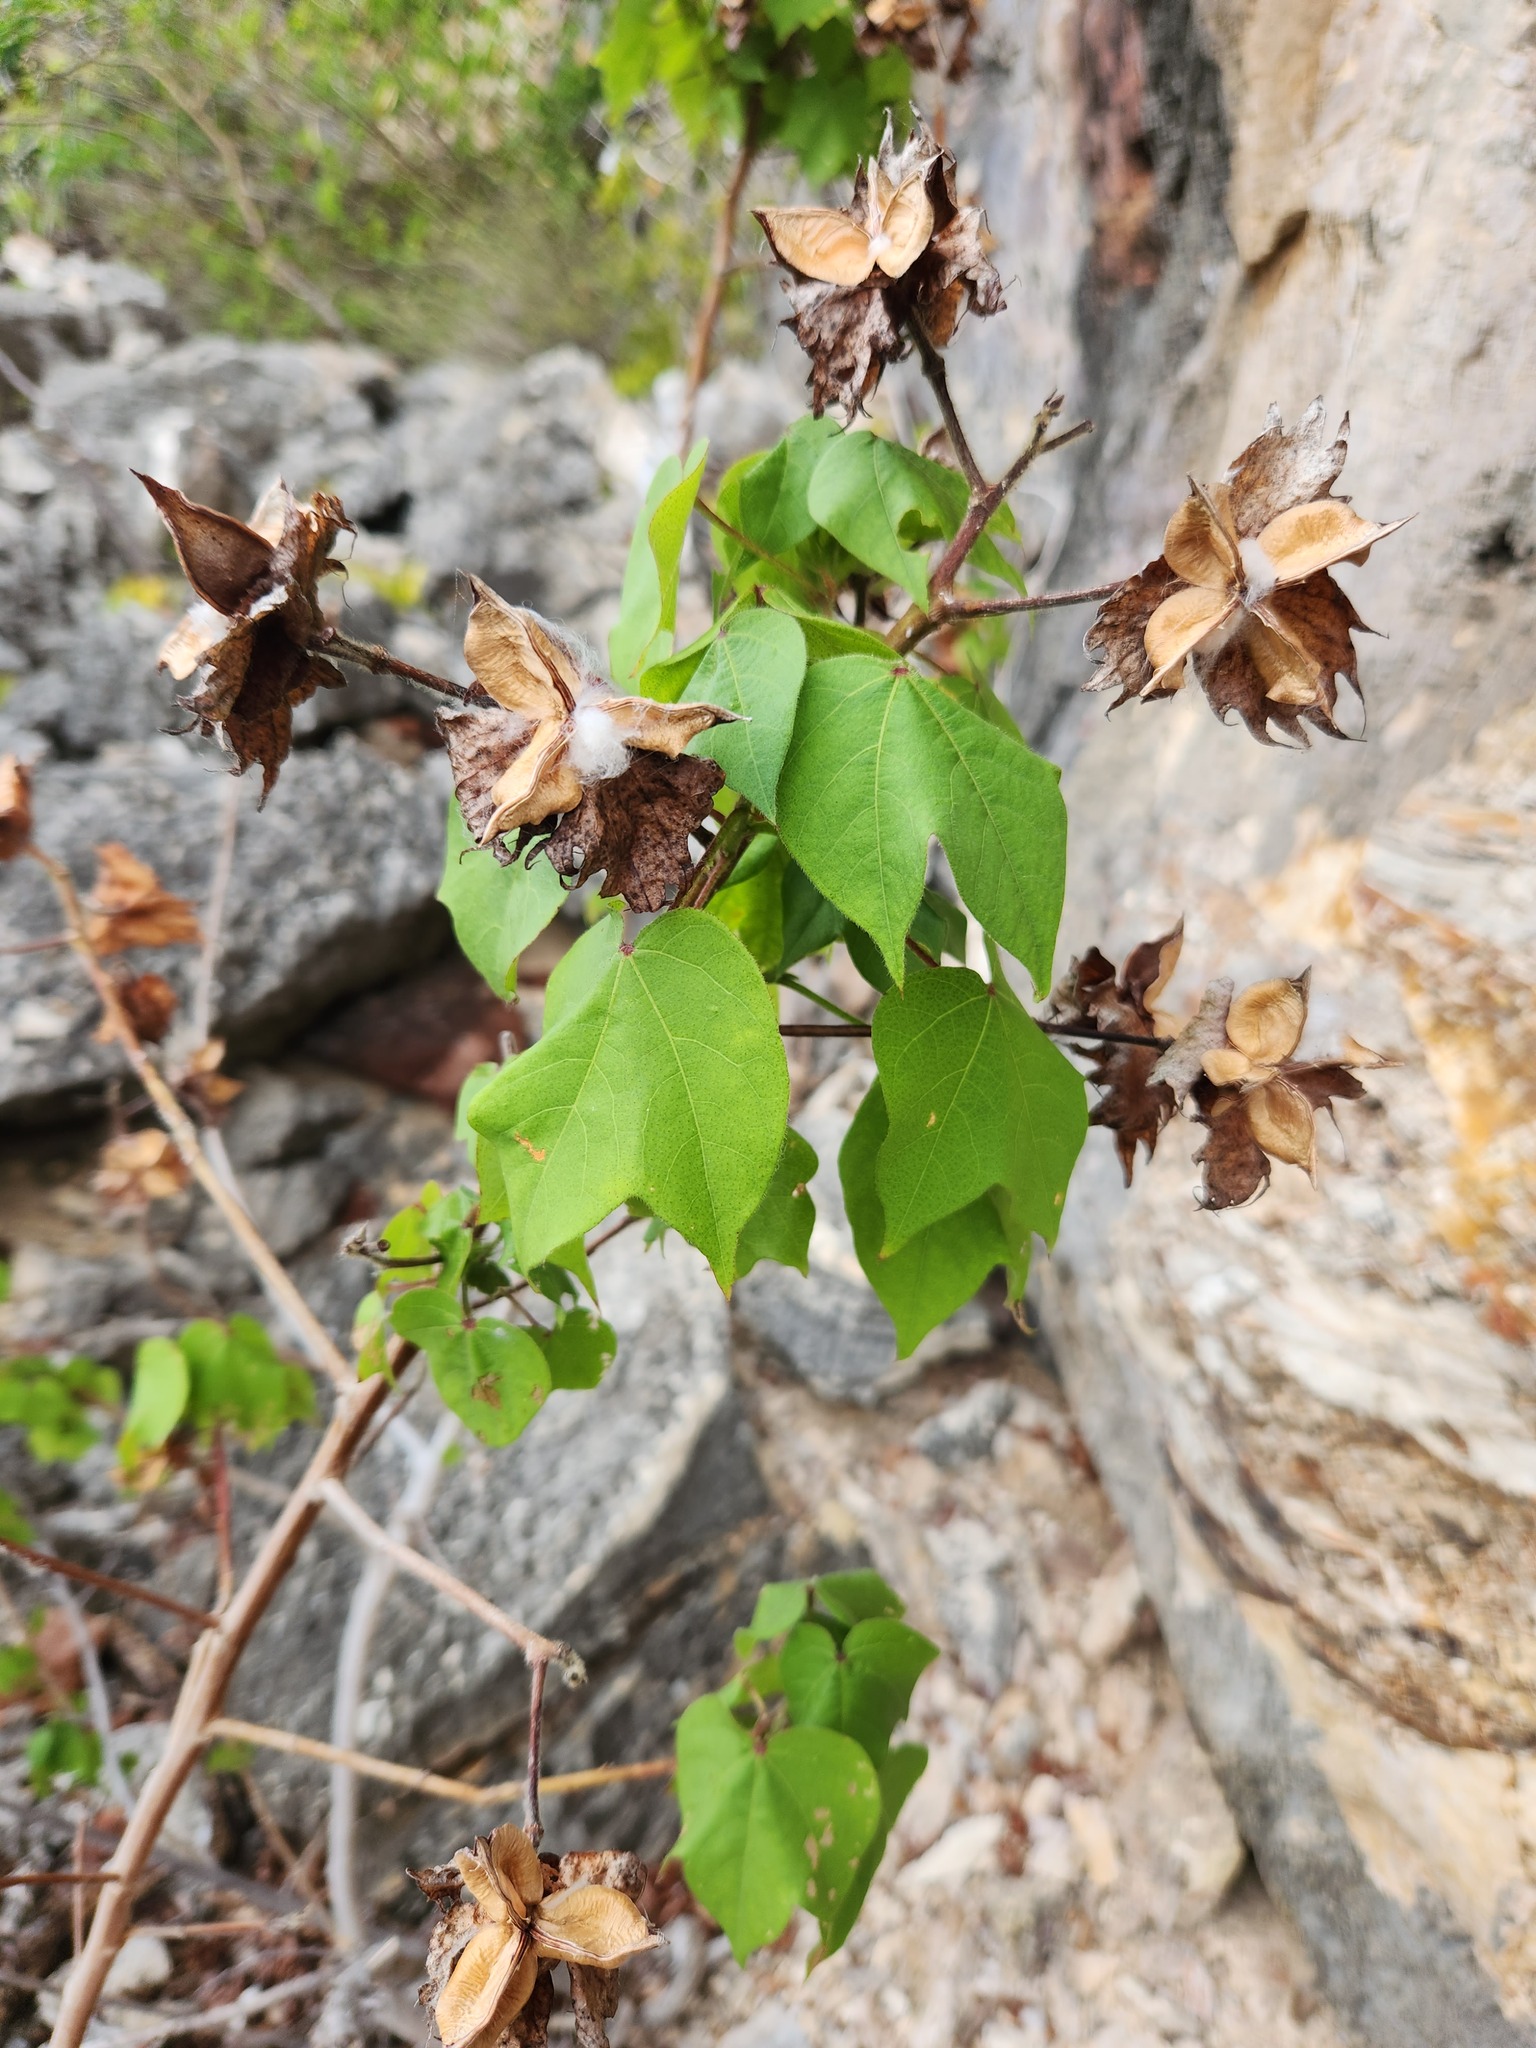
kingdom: Plantae
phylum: Tracheophyta
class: Magnoliopsida
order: Malvales
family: Malvaceae
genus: Gossypium
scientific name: Gossypium hirsutum
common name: Cotton
